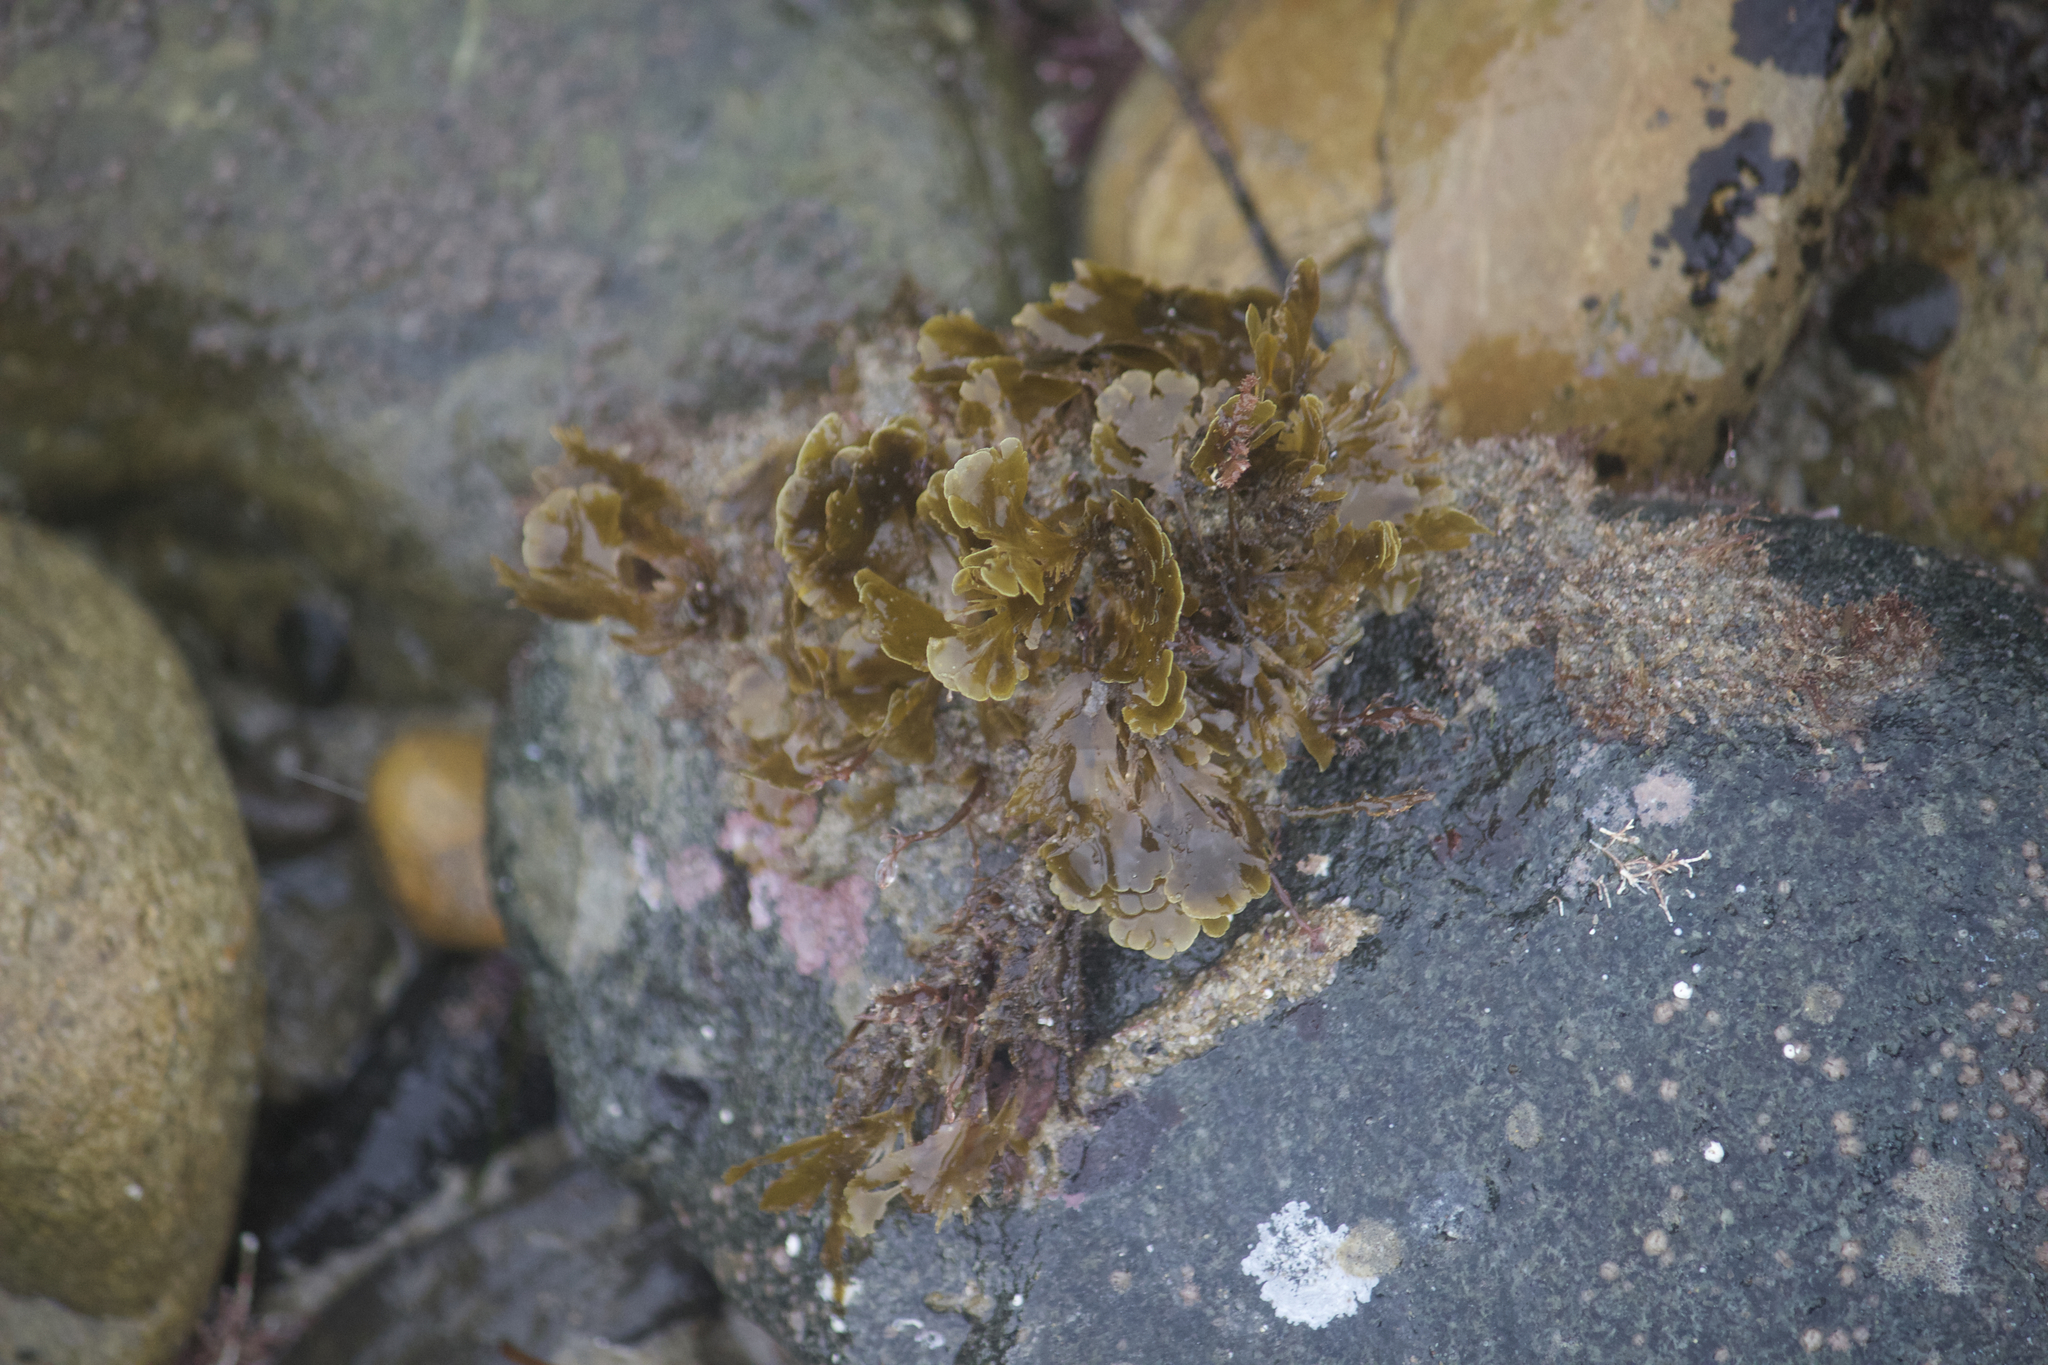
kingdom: Chromista
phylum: Ochrophyta
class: Phaeophyceae
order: Dictyotales
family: Dictyotaceae
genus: Zonaria
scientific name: Zonaria farlowii
